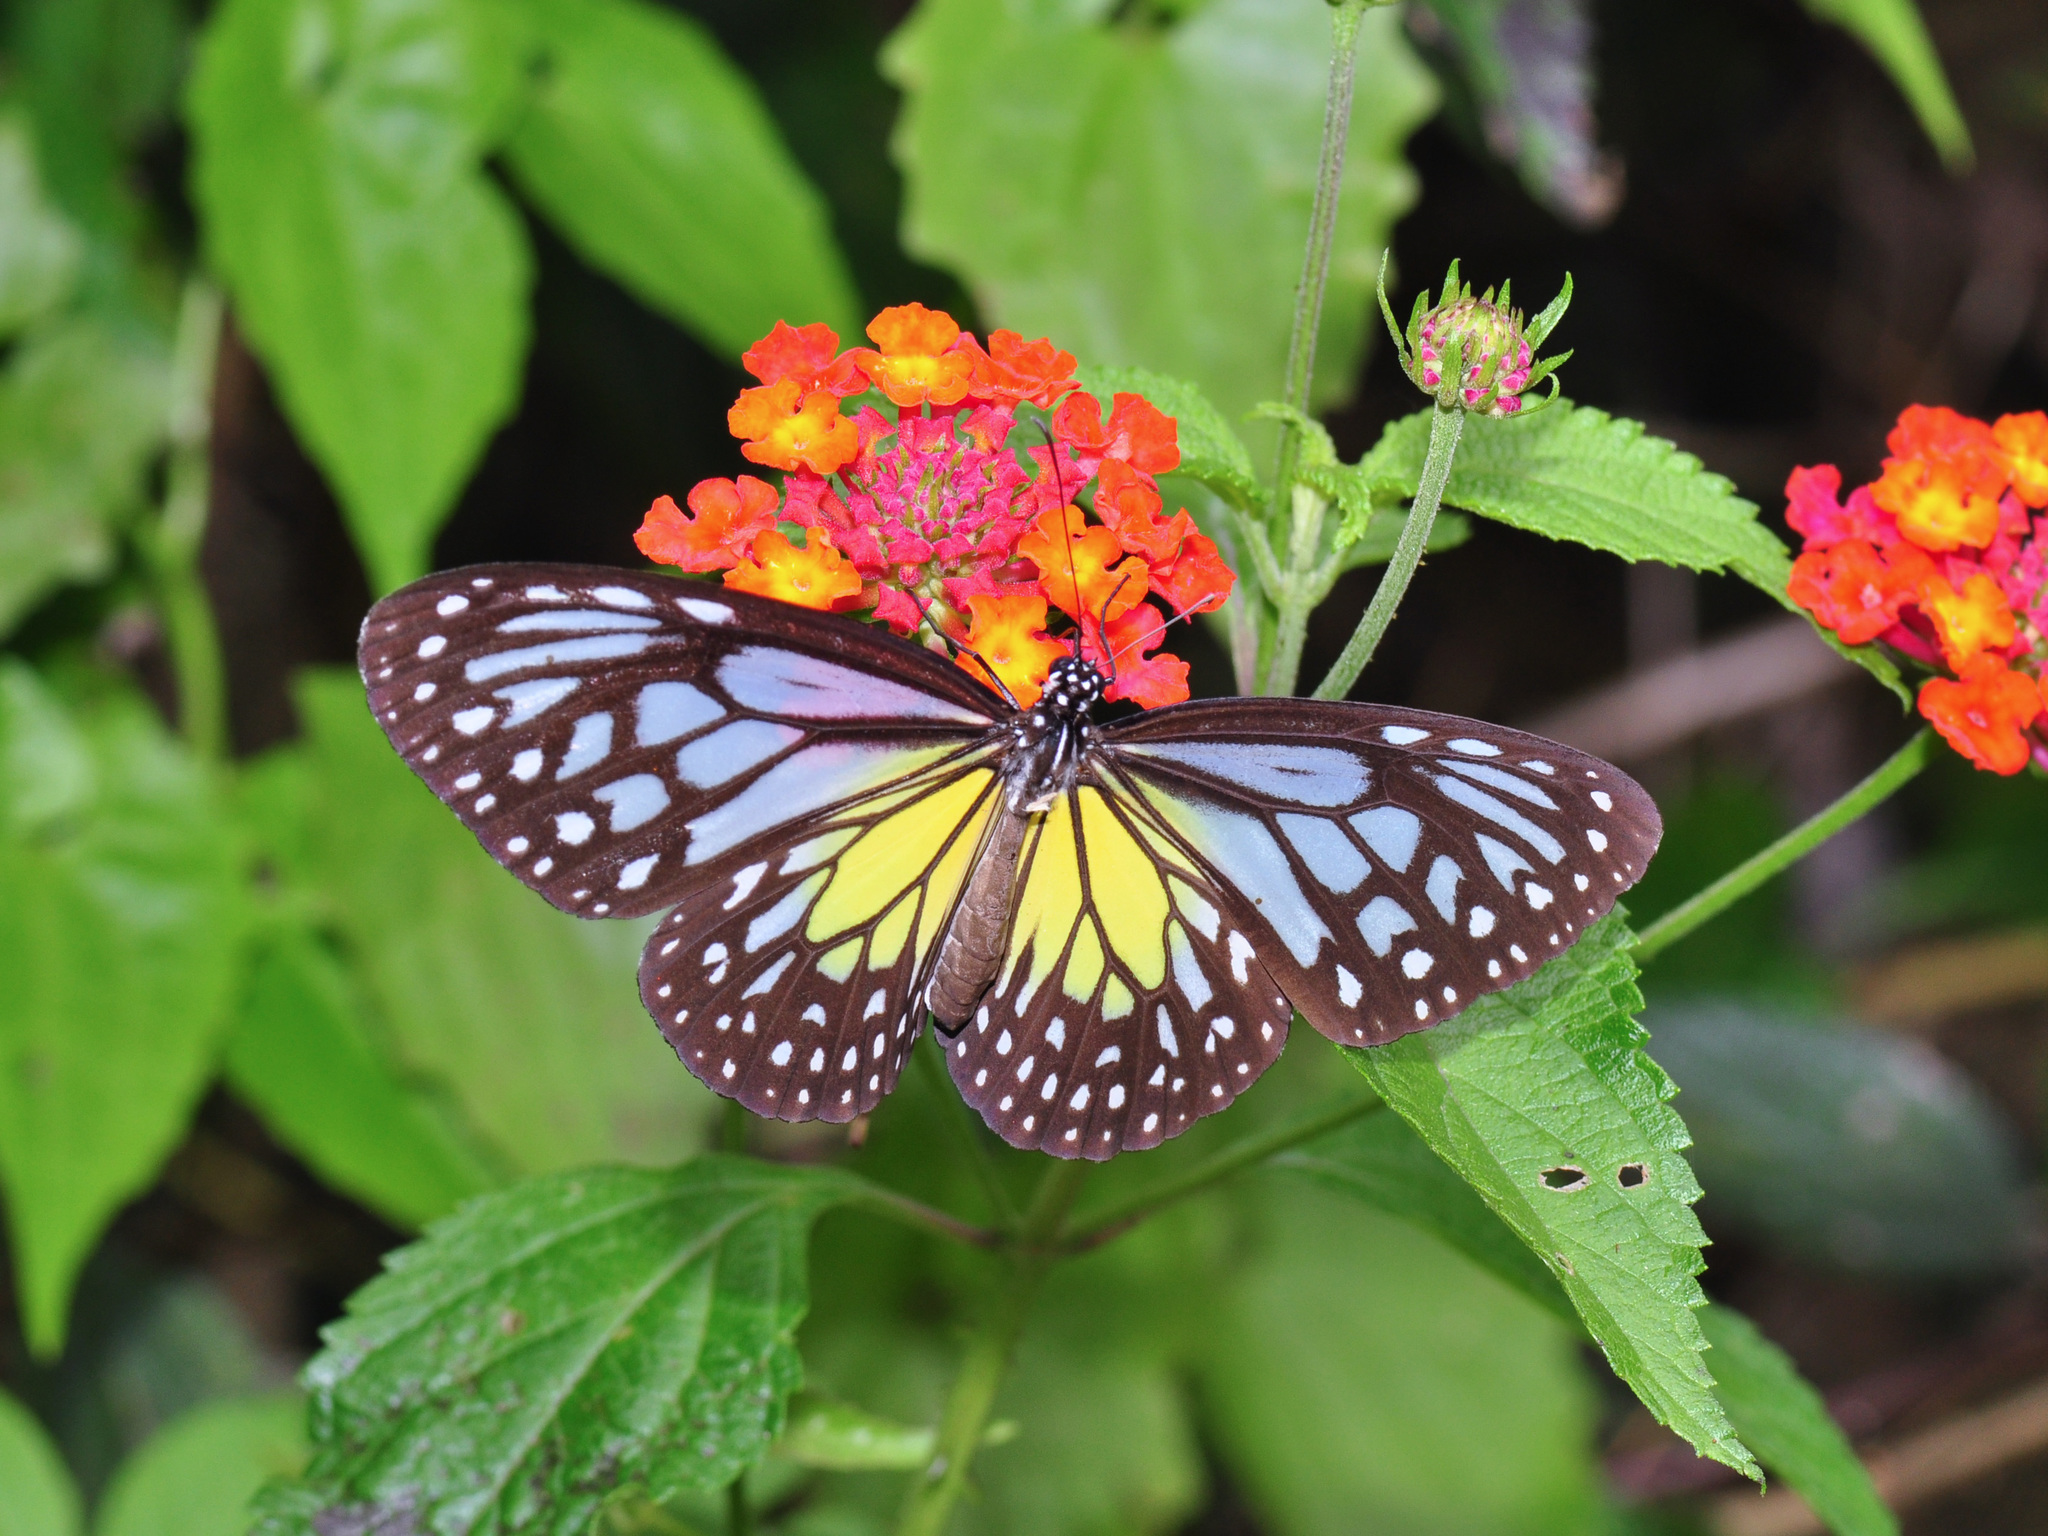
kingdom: Animalia
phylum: Arthropoda
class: Insecta
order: Lepidoptera
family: Nymphalidae
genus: Parantica
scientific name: Parantica aspasia
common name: Yellow glassy tiger
